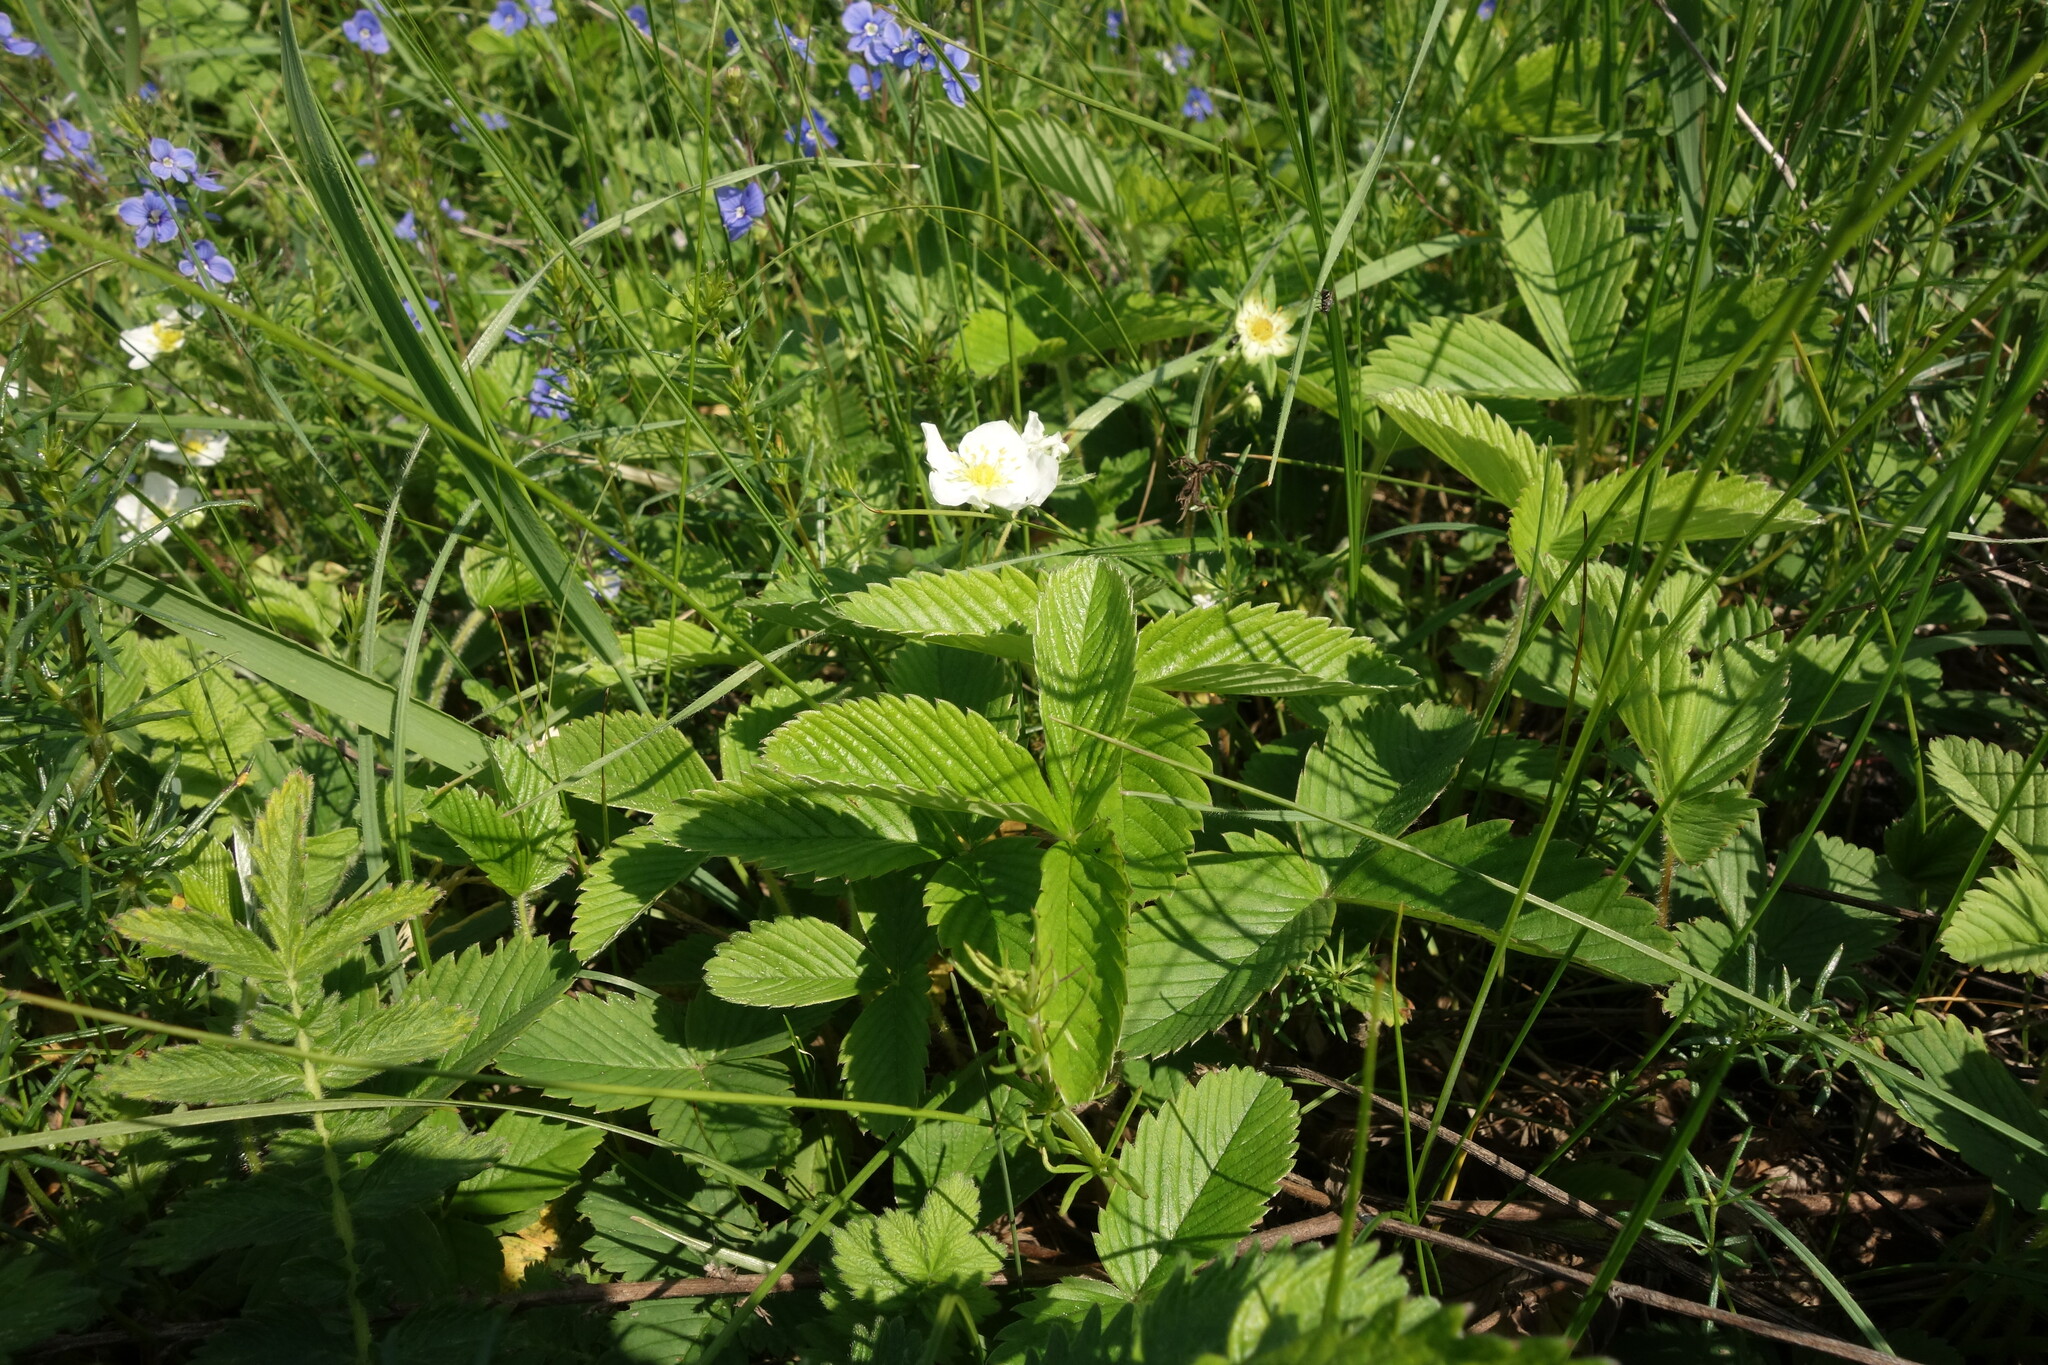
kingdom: Plantae
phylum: Tracheophyta
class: Magnoliopsida
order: Rosales
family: Rosaceae
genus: Fragaria
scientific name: Fragaria viridis
